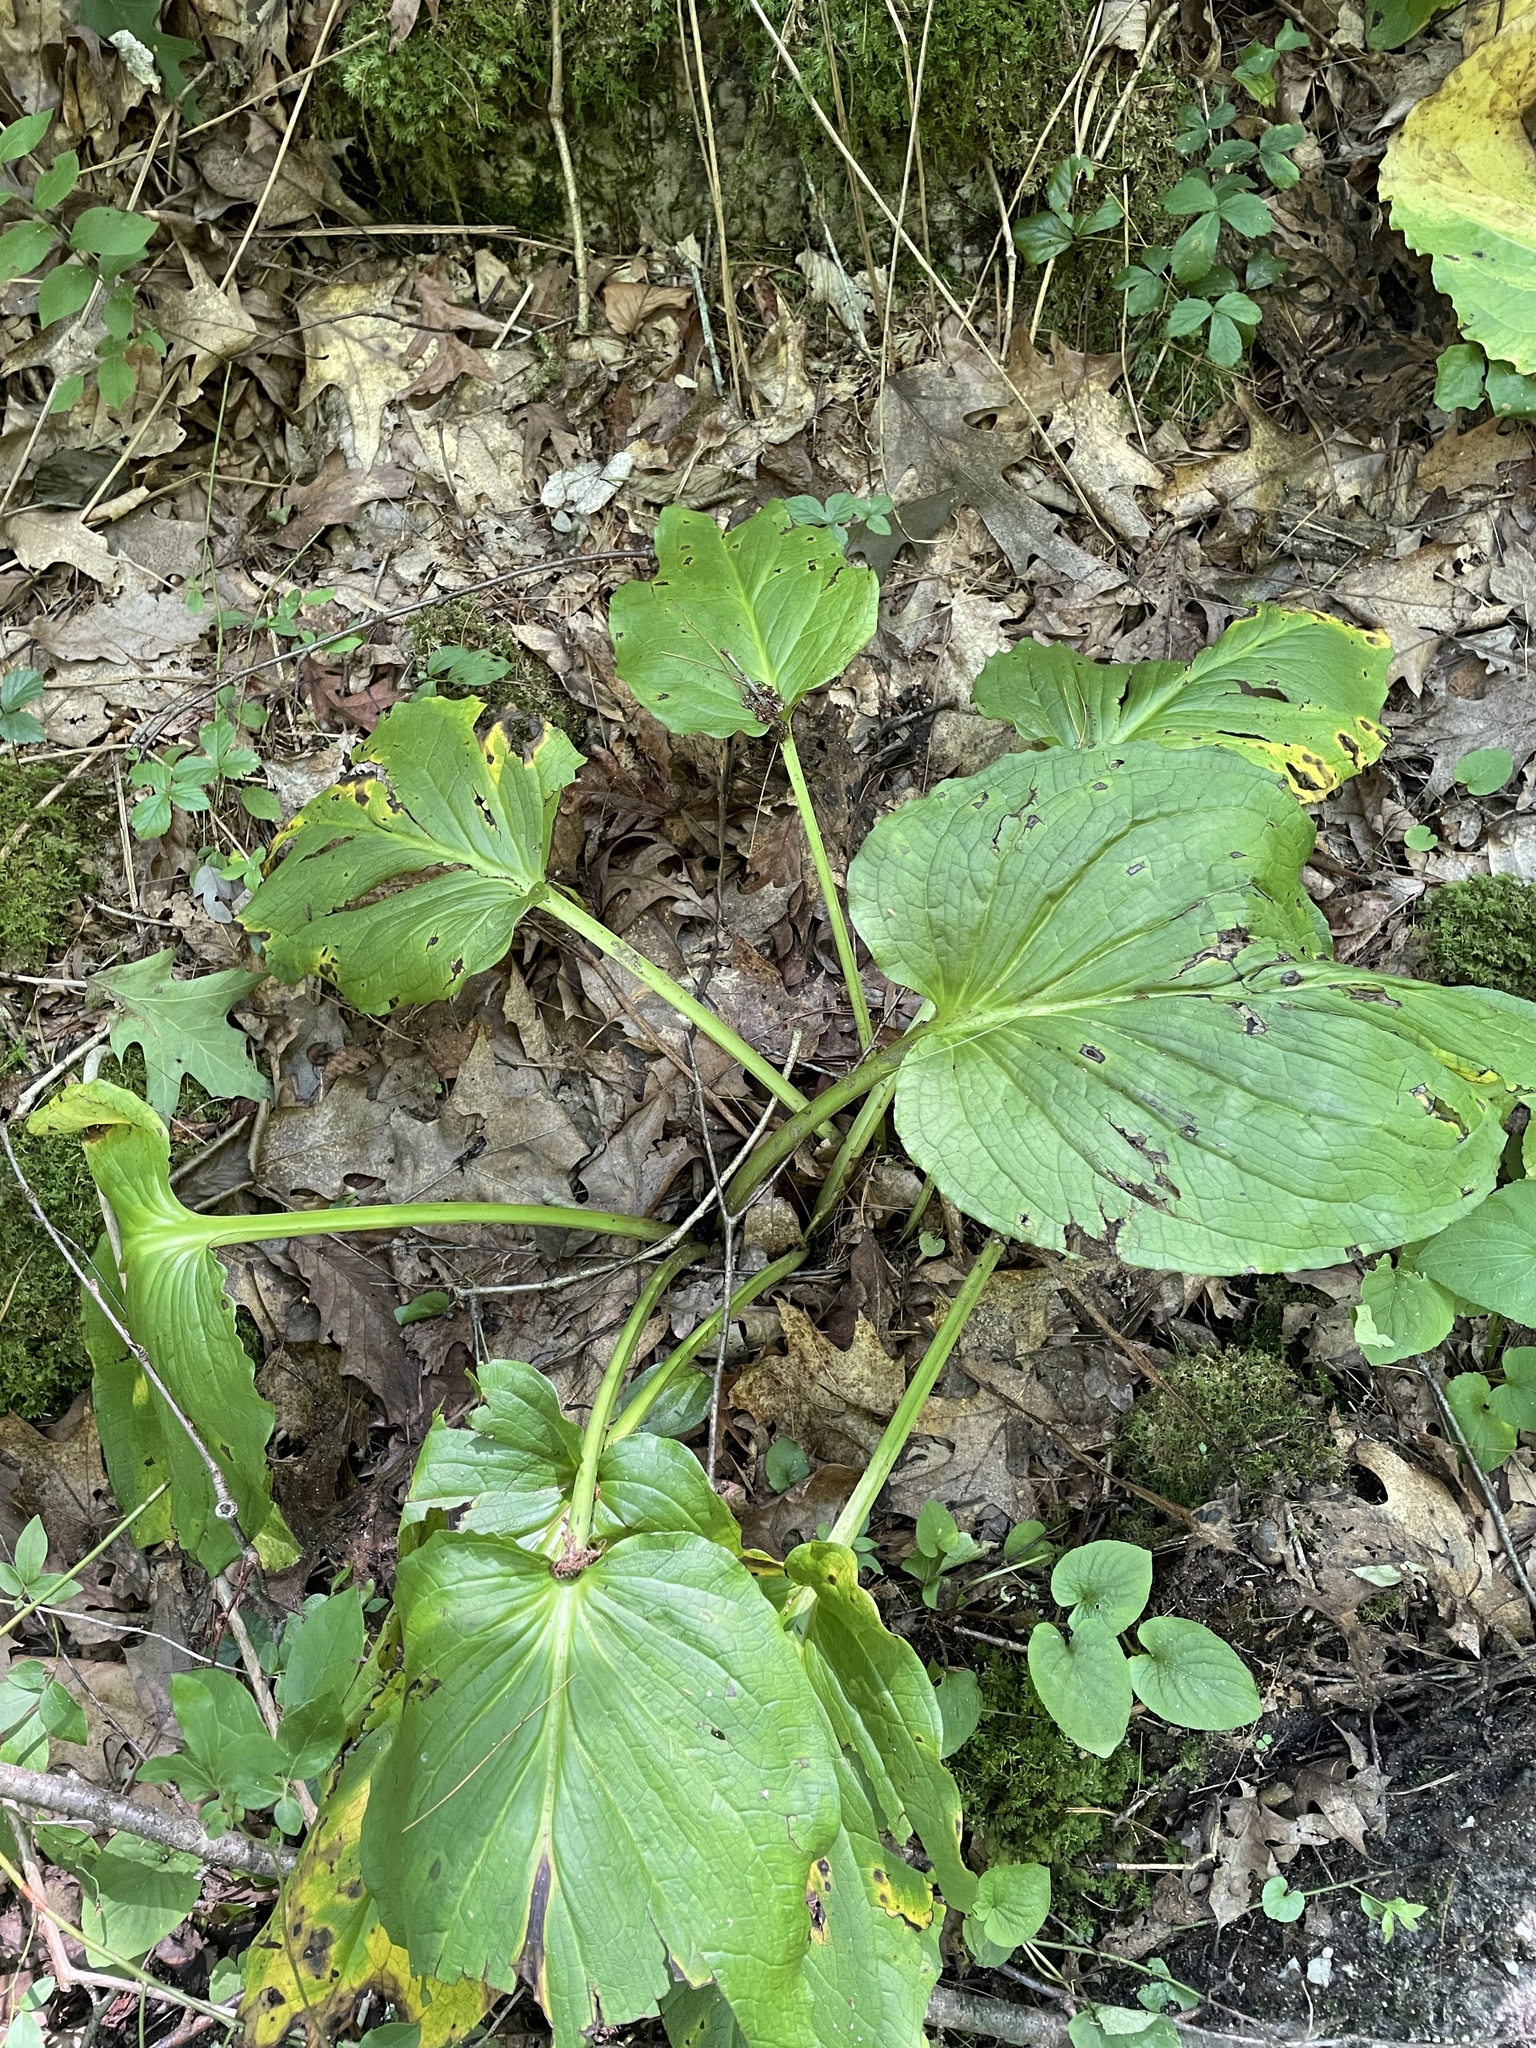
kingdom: Plantae
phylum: Tracheophyta
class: Liliopsida
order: Alismatales
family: Araceae
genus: Symplocarpus
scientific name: Symplocarpus foetidus
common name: Eastern skunk cabbage
